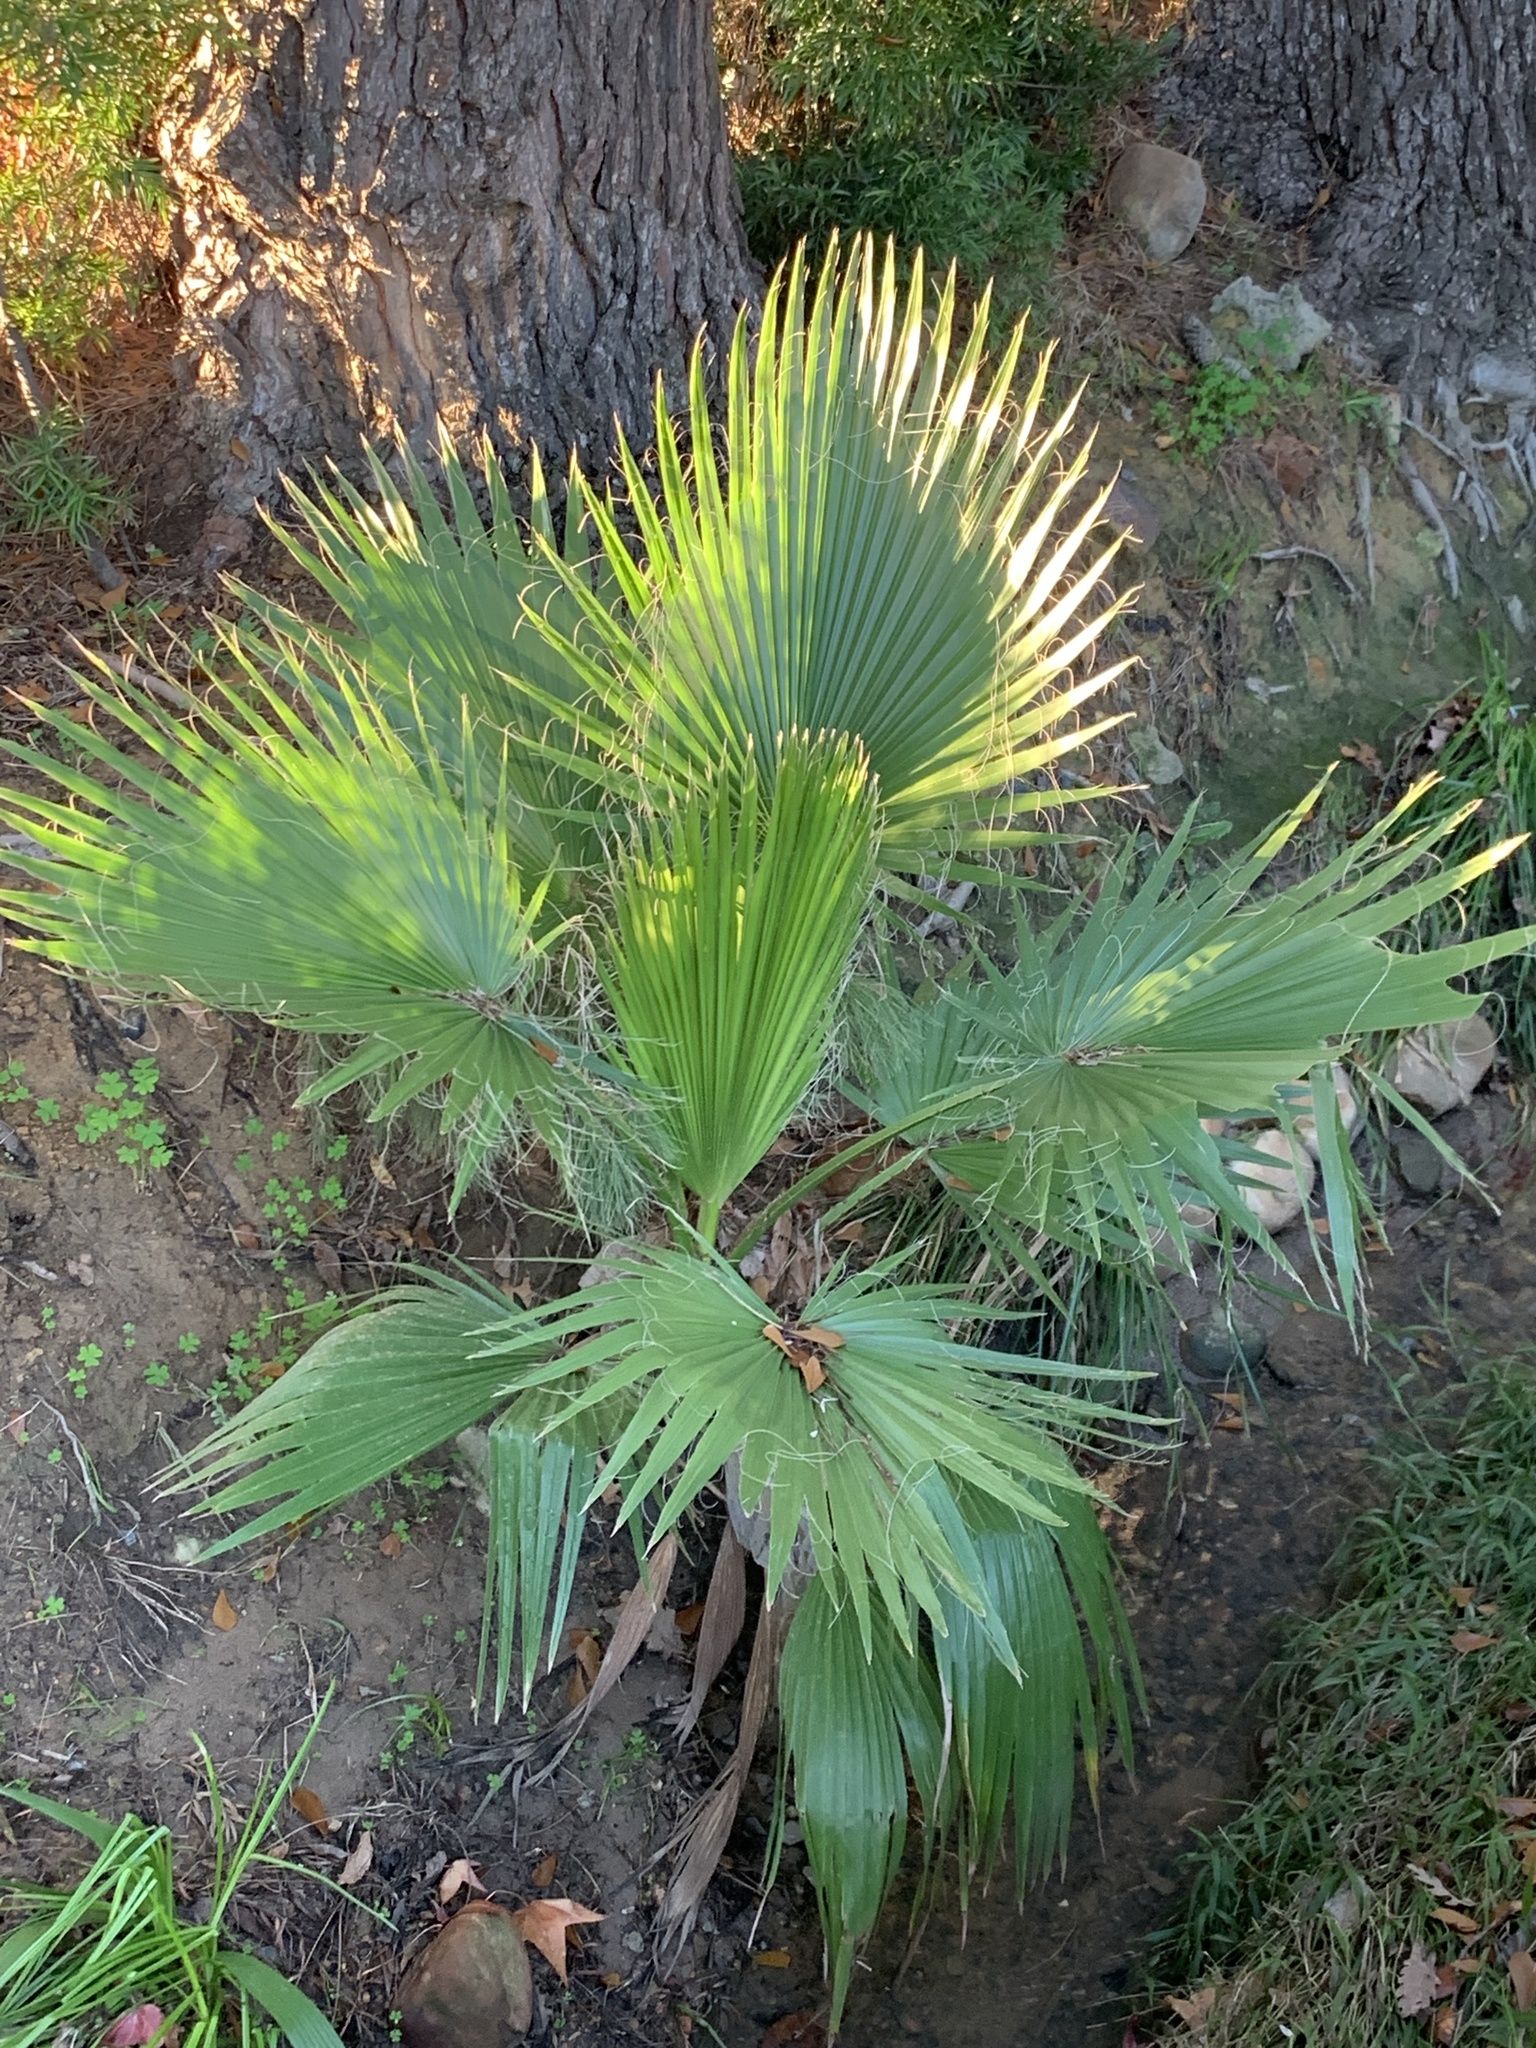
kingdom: Plantae
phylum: Tracheophyta
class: Liliopsida
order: Arecales
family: Arecaceae
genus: Washingtonia
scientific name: Washingtonia robusta
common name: Mexican fan palm
